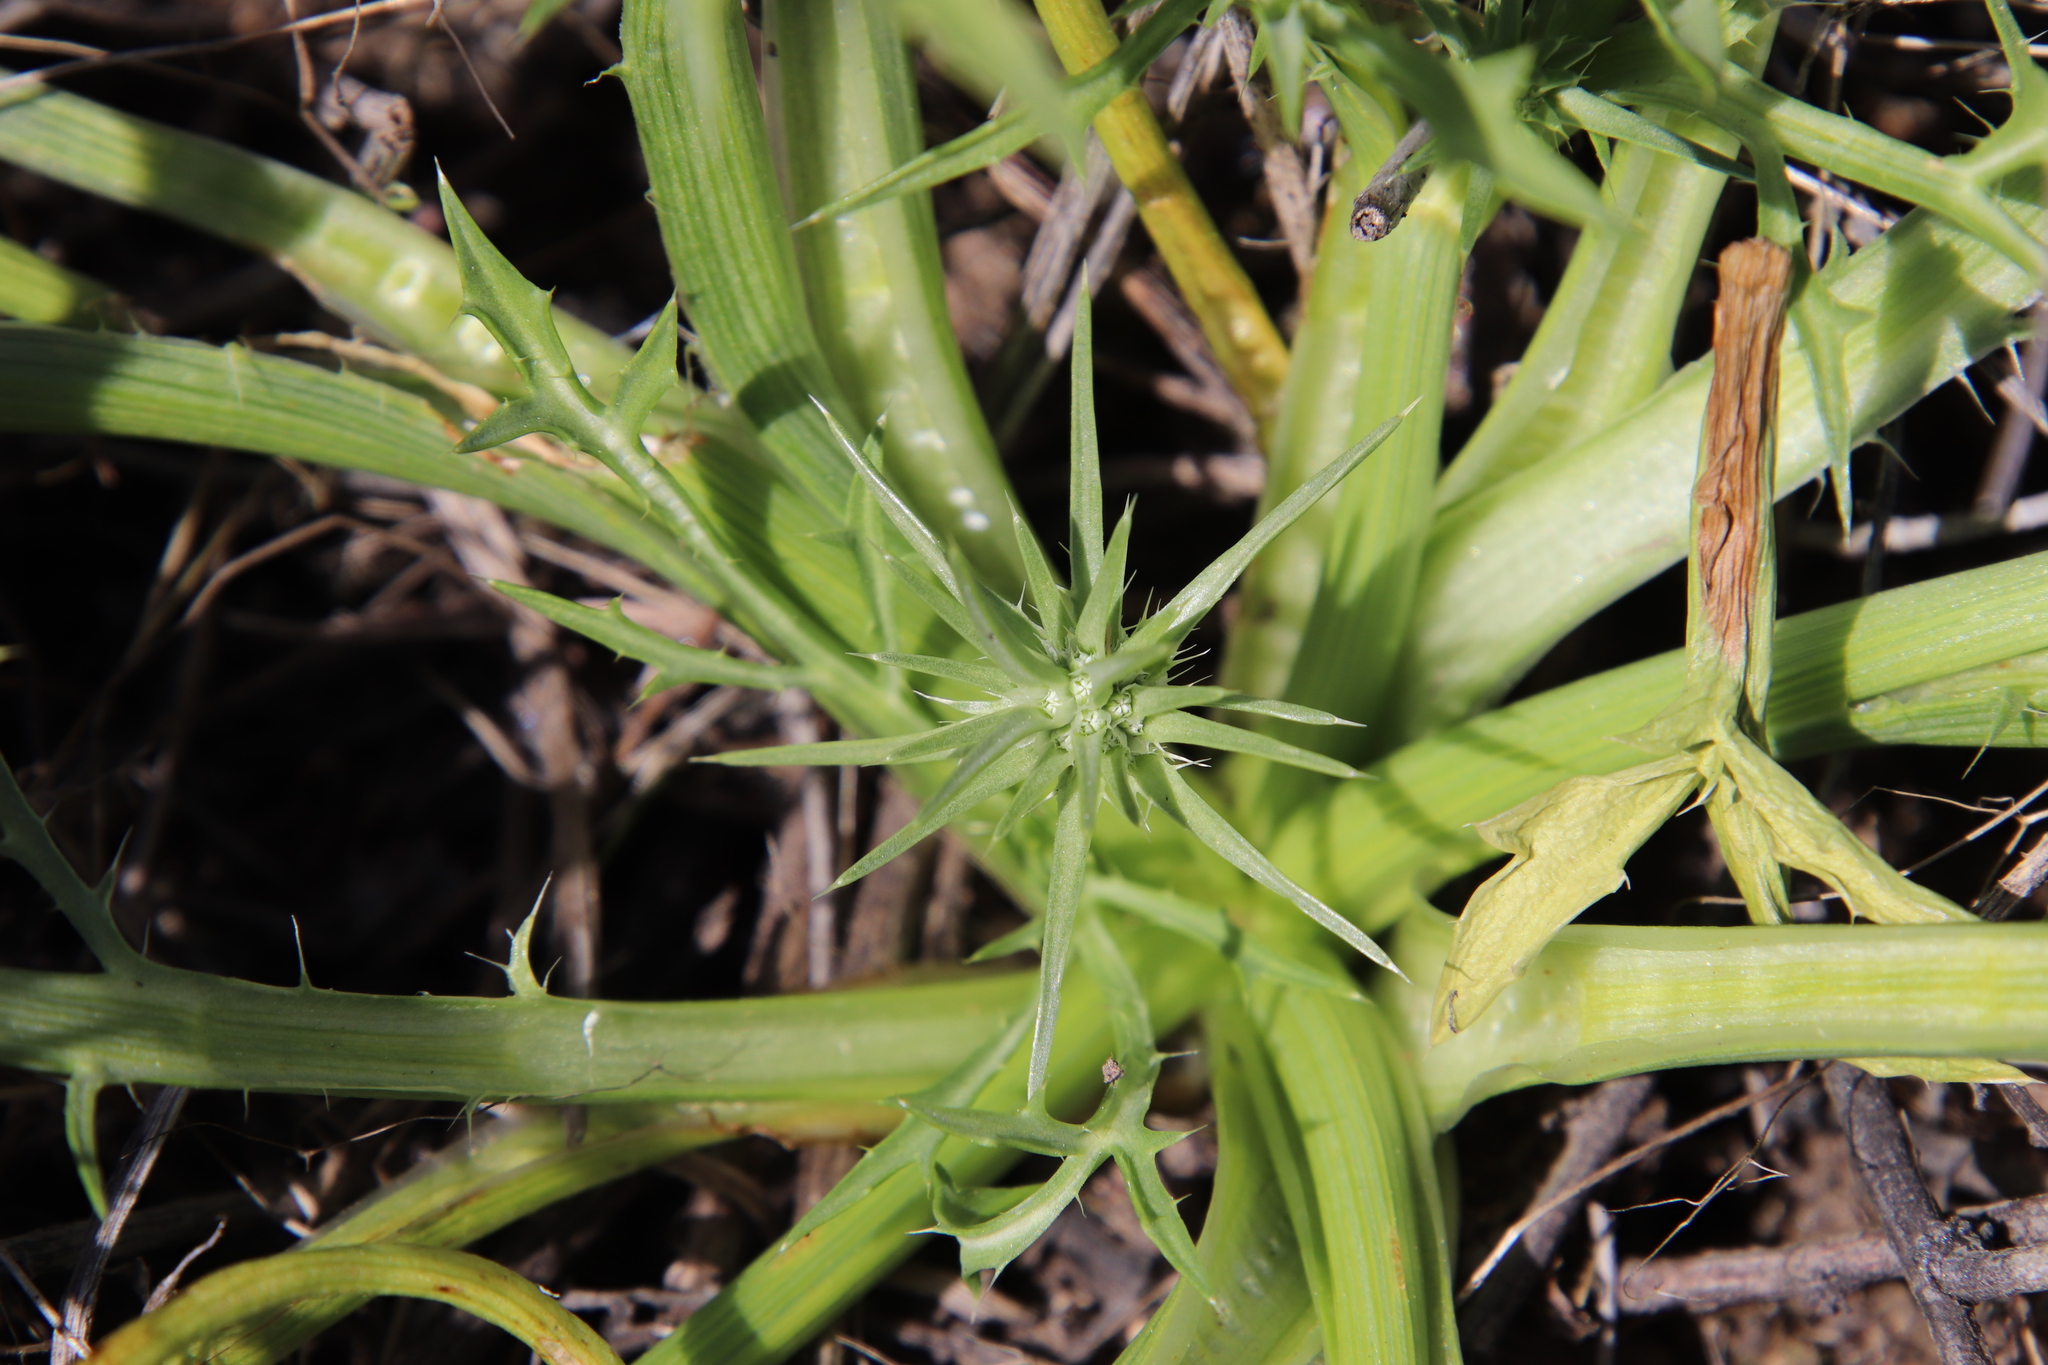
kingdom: Plantae
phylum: Tracheophyta
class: Magnoliopsida
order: Apiales
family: Apiaceae
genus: Eryngium
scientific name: Eryngium aristulatum
